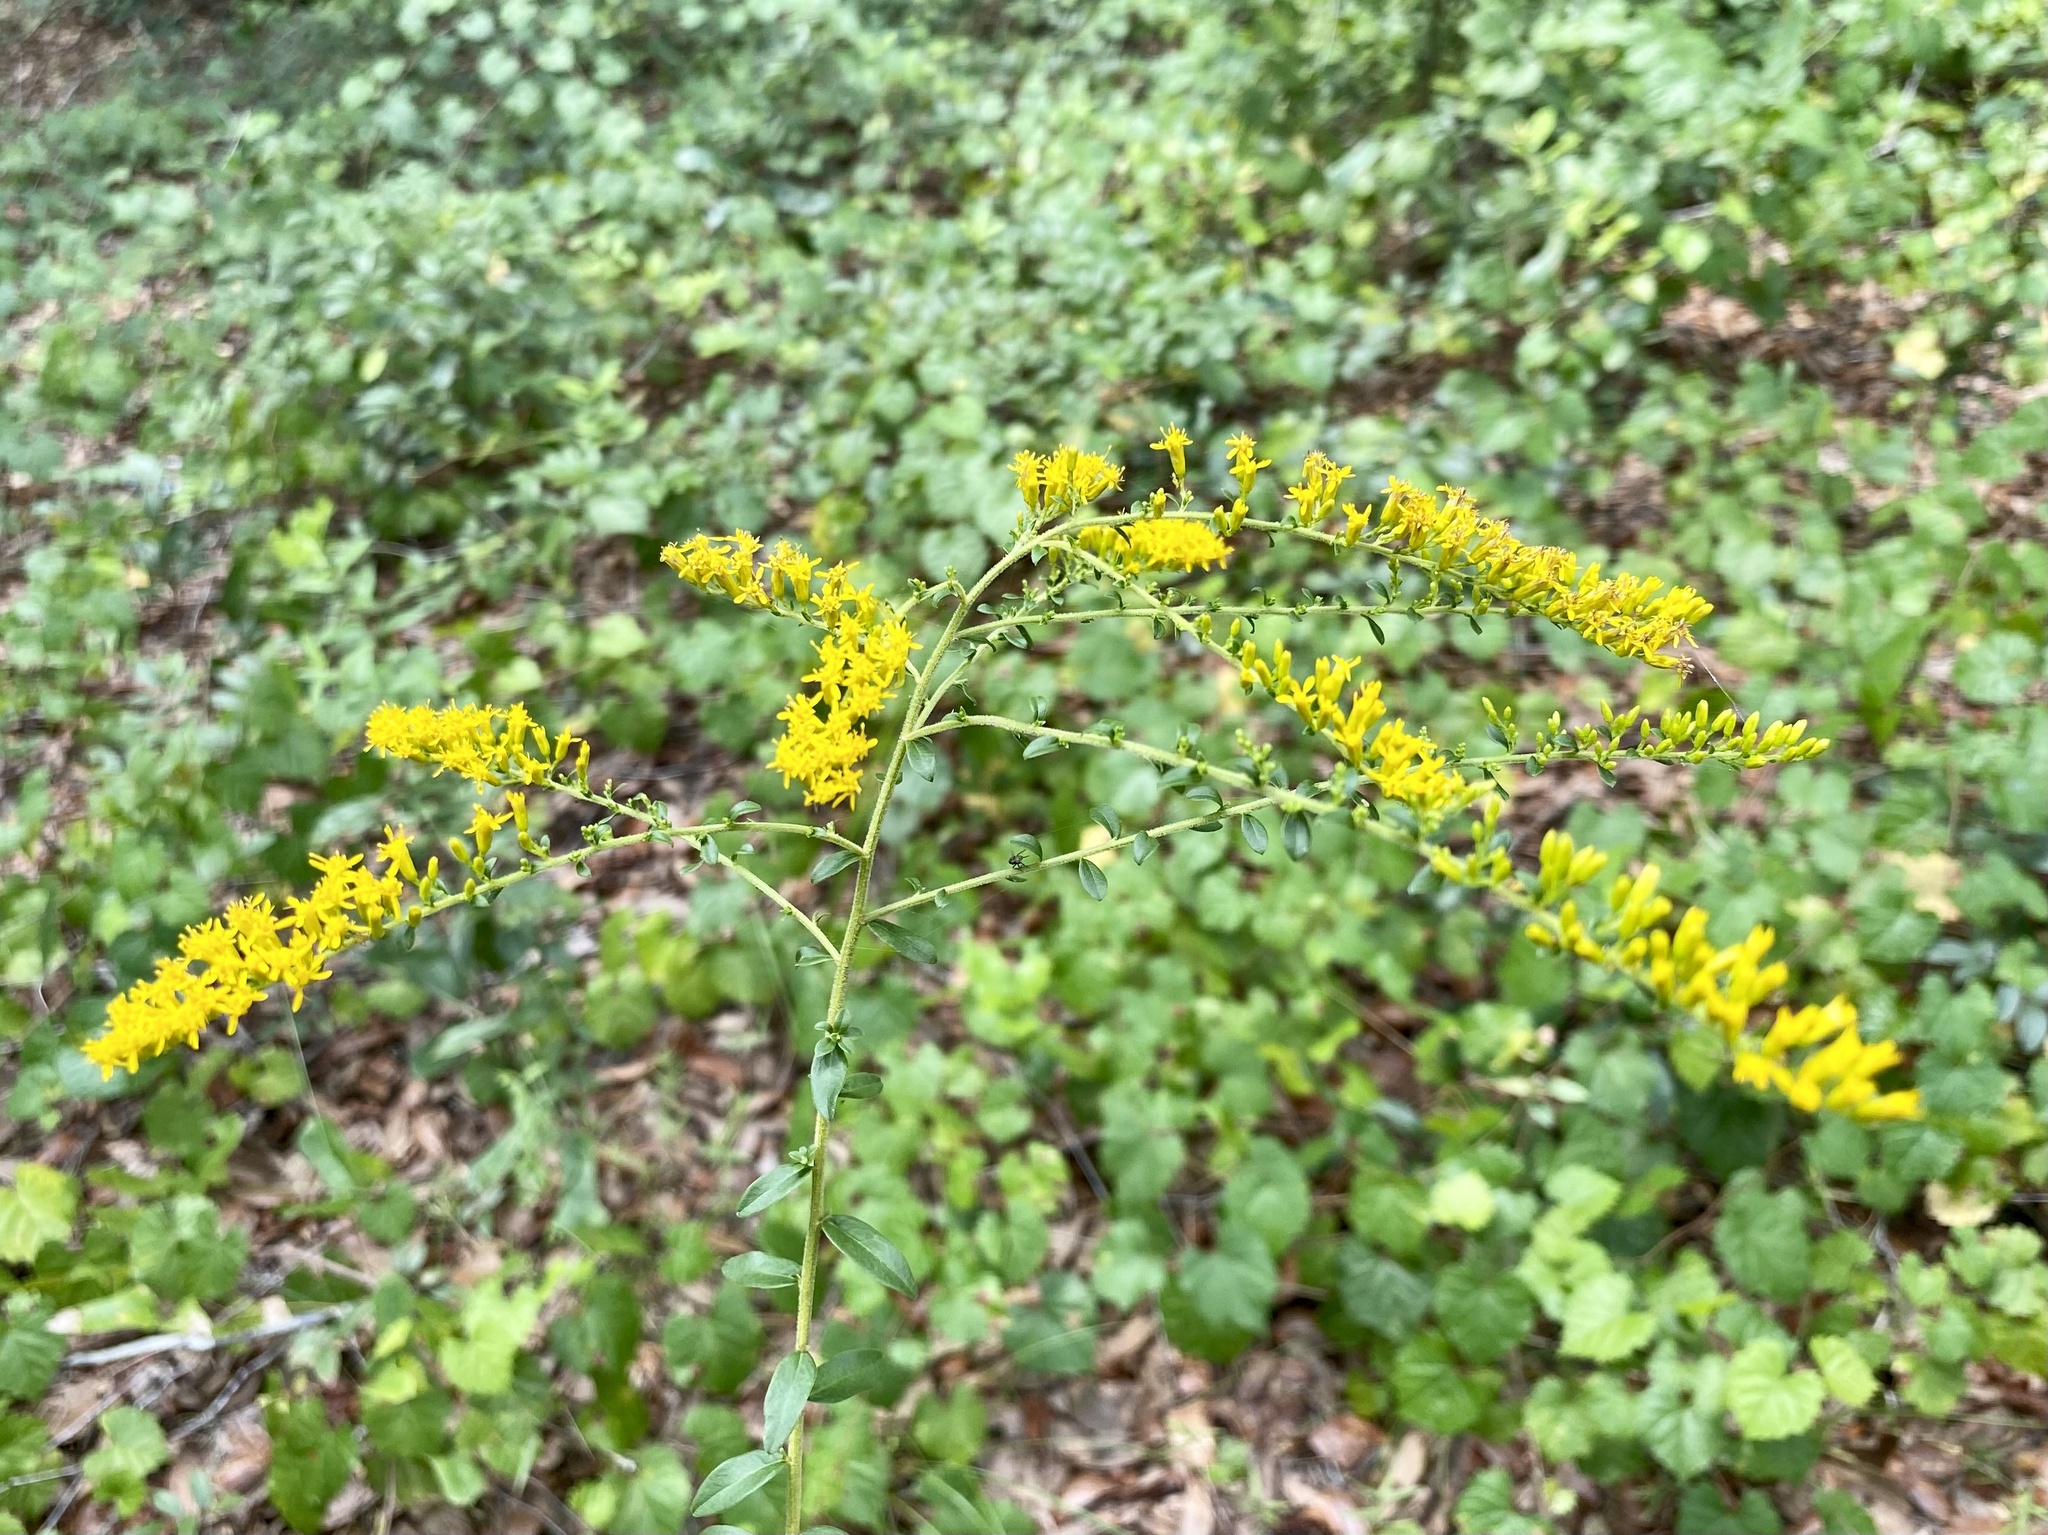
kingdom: Plantae
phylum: Tracheophyta
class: Magnoliopsida
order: Asterales
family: Asteraceae
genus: Solidago
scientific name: Solidago chapmanii
